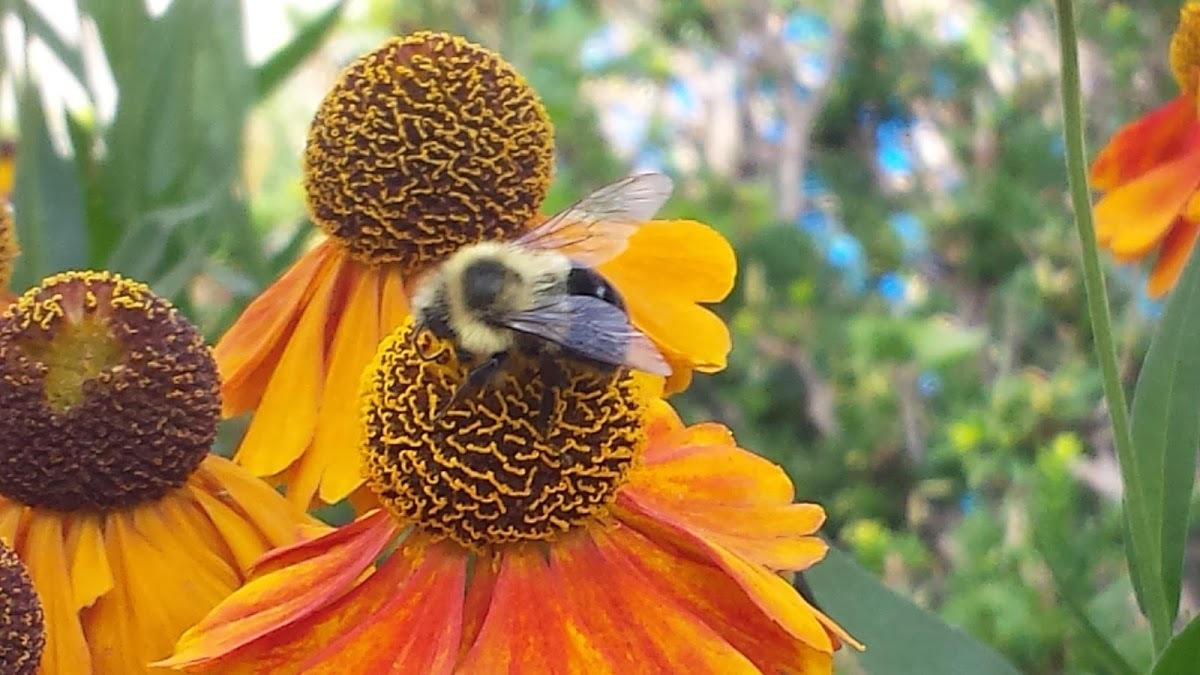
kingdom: Animalia
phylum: Arthropoda
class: Insecta
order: Hymenoptera
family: Apidae
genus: Bombus
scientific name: Bombus impatiens
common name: Common eastern bumble bee
